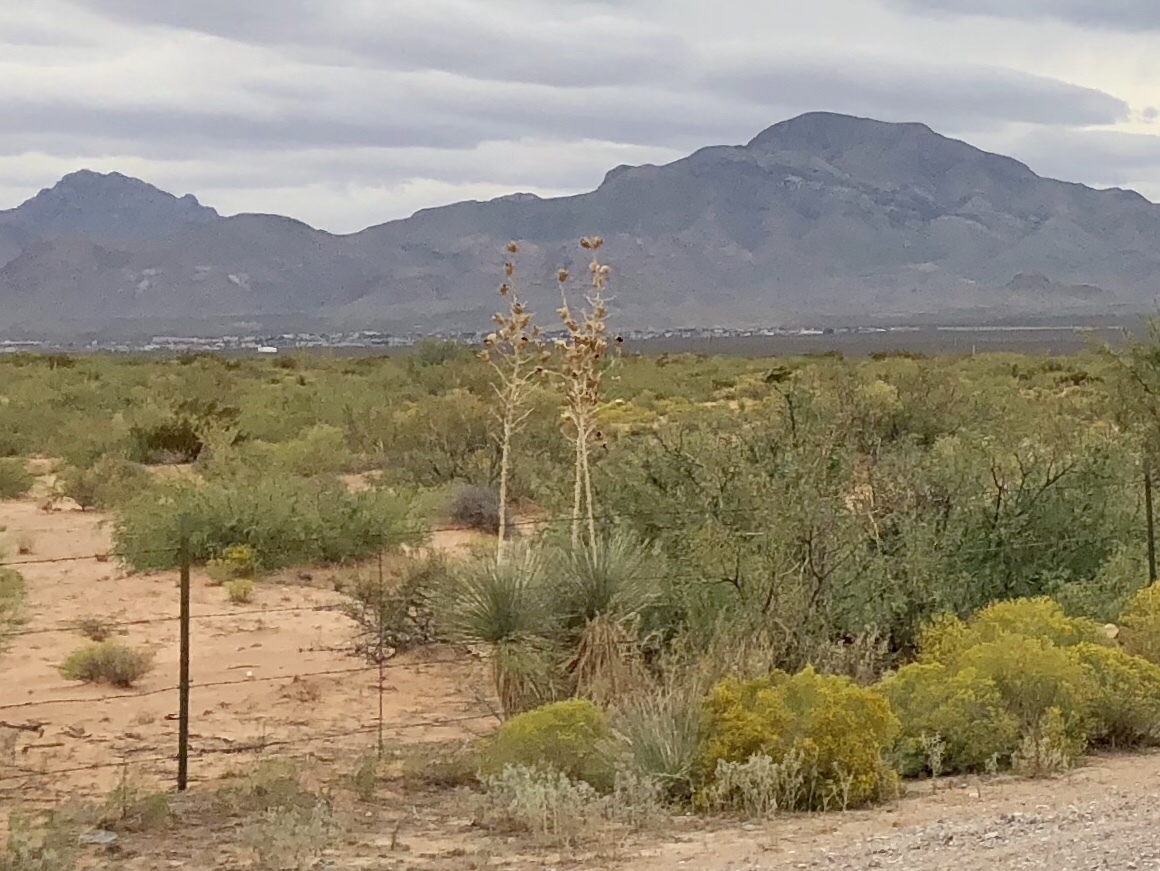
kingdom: Plantae
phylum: Tracheophyta
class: Liliopsida
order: Asparagales
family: Asparagaceae
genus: Yucca
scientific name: Yucca elata
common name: Palmella
